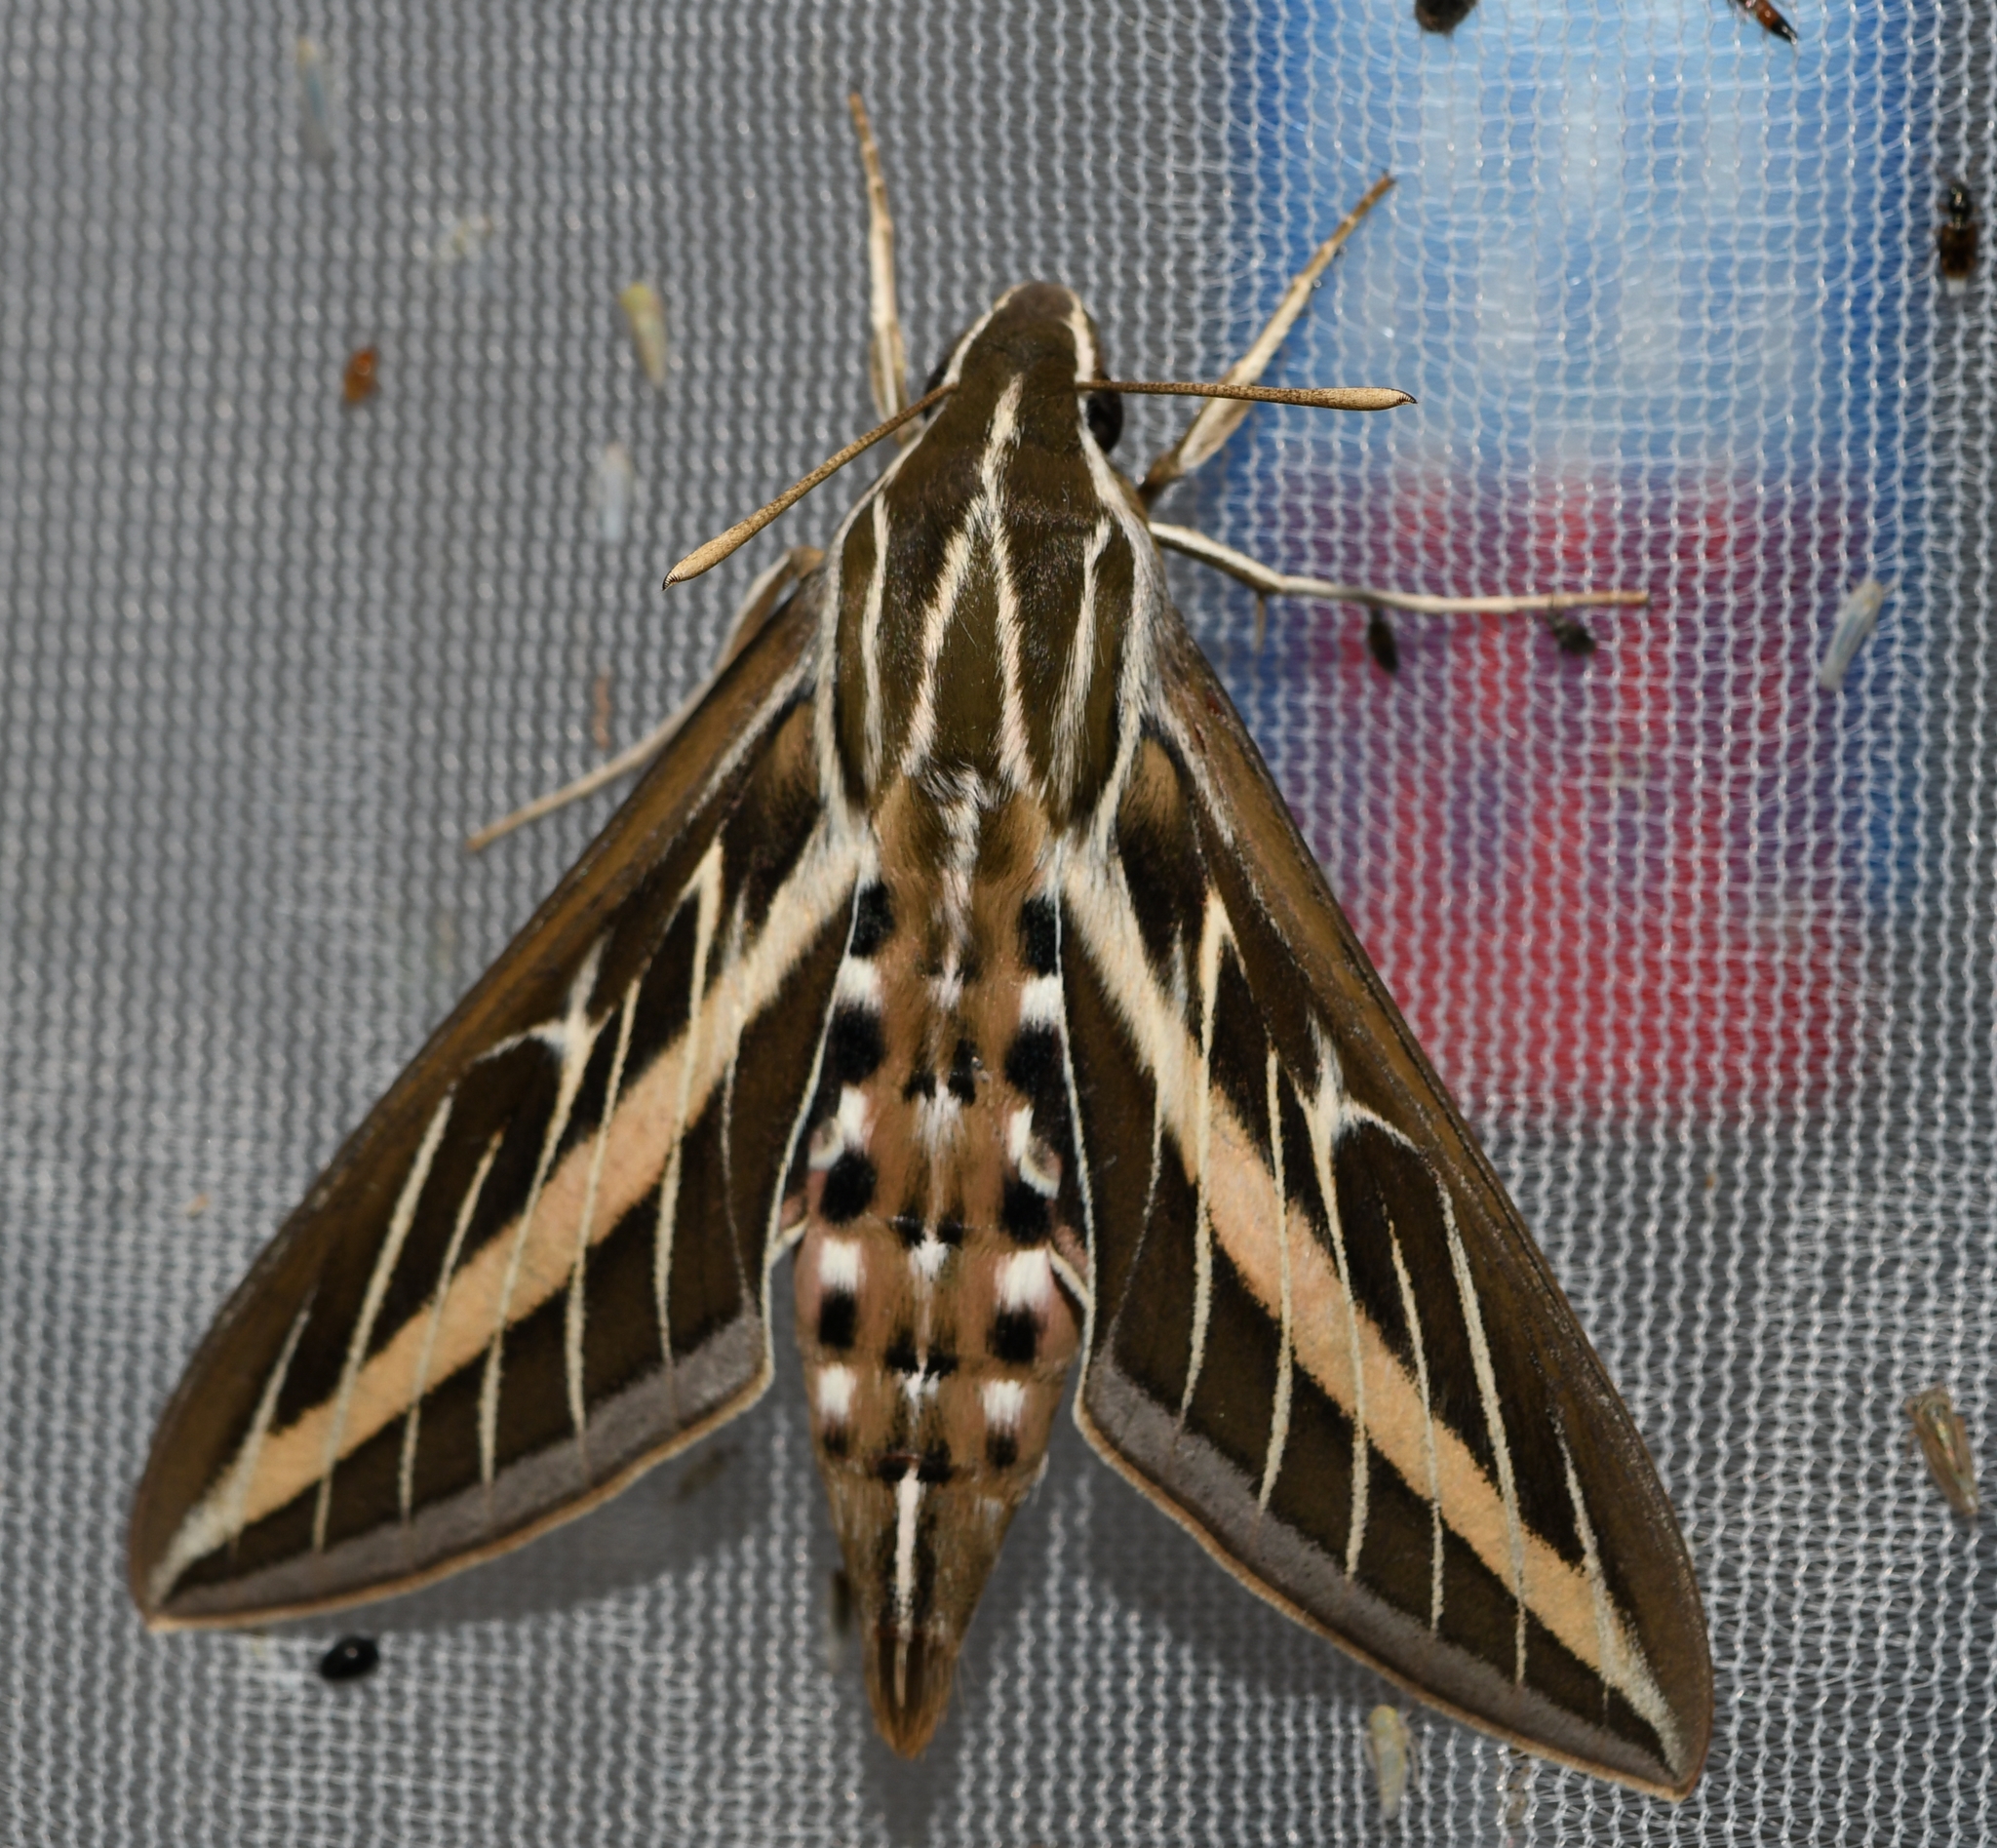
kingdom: Animalia
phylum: Arthropoda
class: Insecta
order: Lepidoptera
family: Sphingidae
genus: Hyles
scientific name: Hyles lineata
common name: White-lined sphinx
